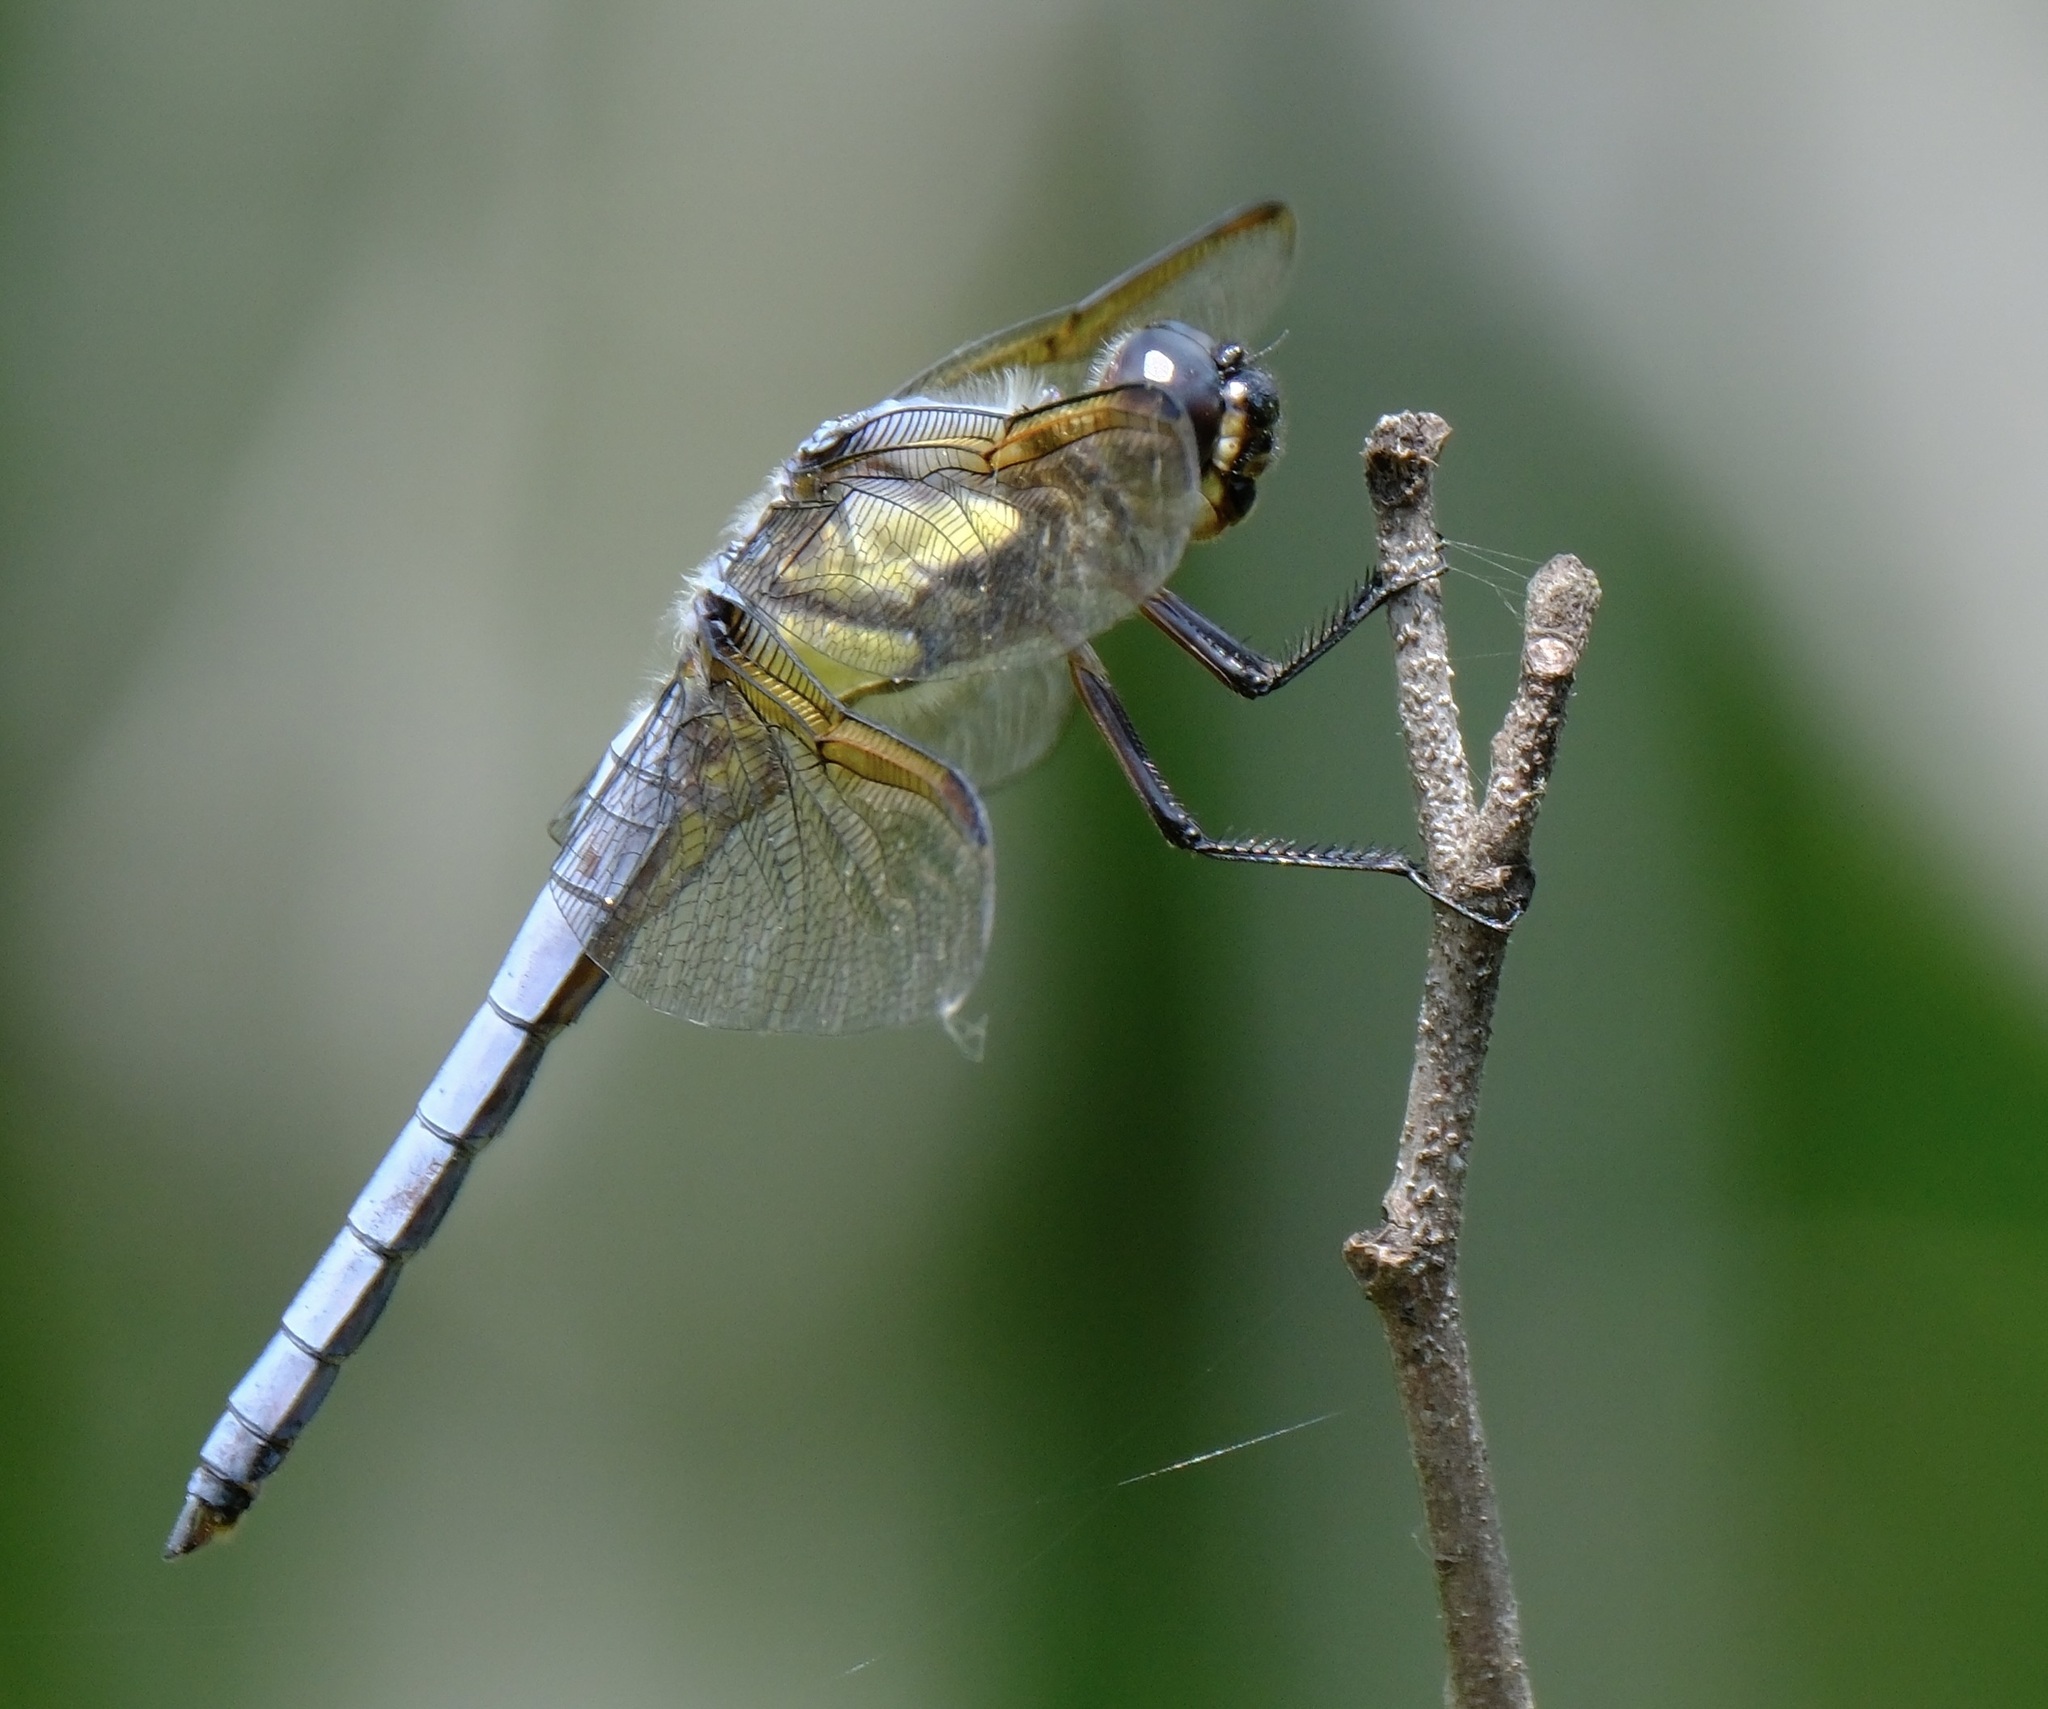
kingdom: Animalia
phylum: Arthropoda
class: Insecta
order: Odonata
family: Libellulidae
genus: Libellula
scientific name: Libellula flavida
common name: Yellow-sided skimmer
